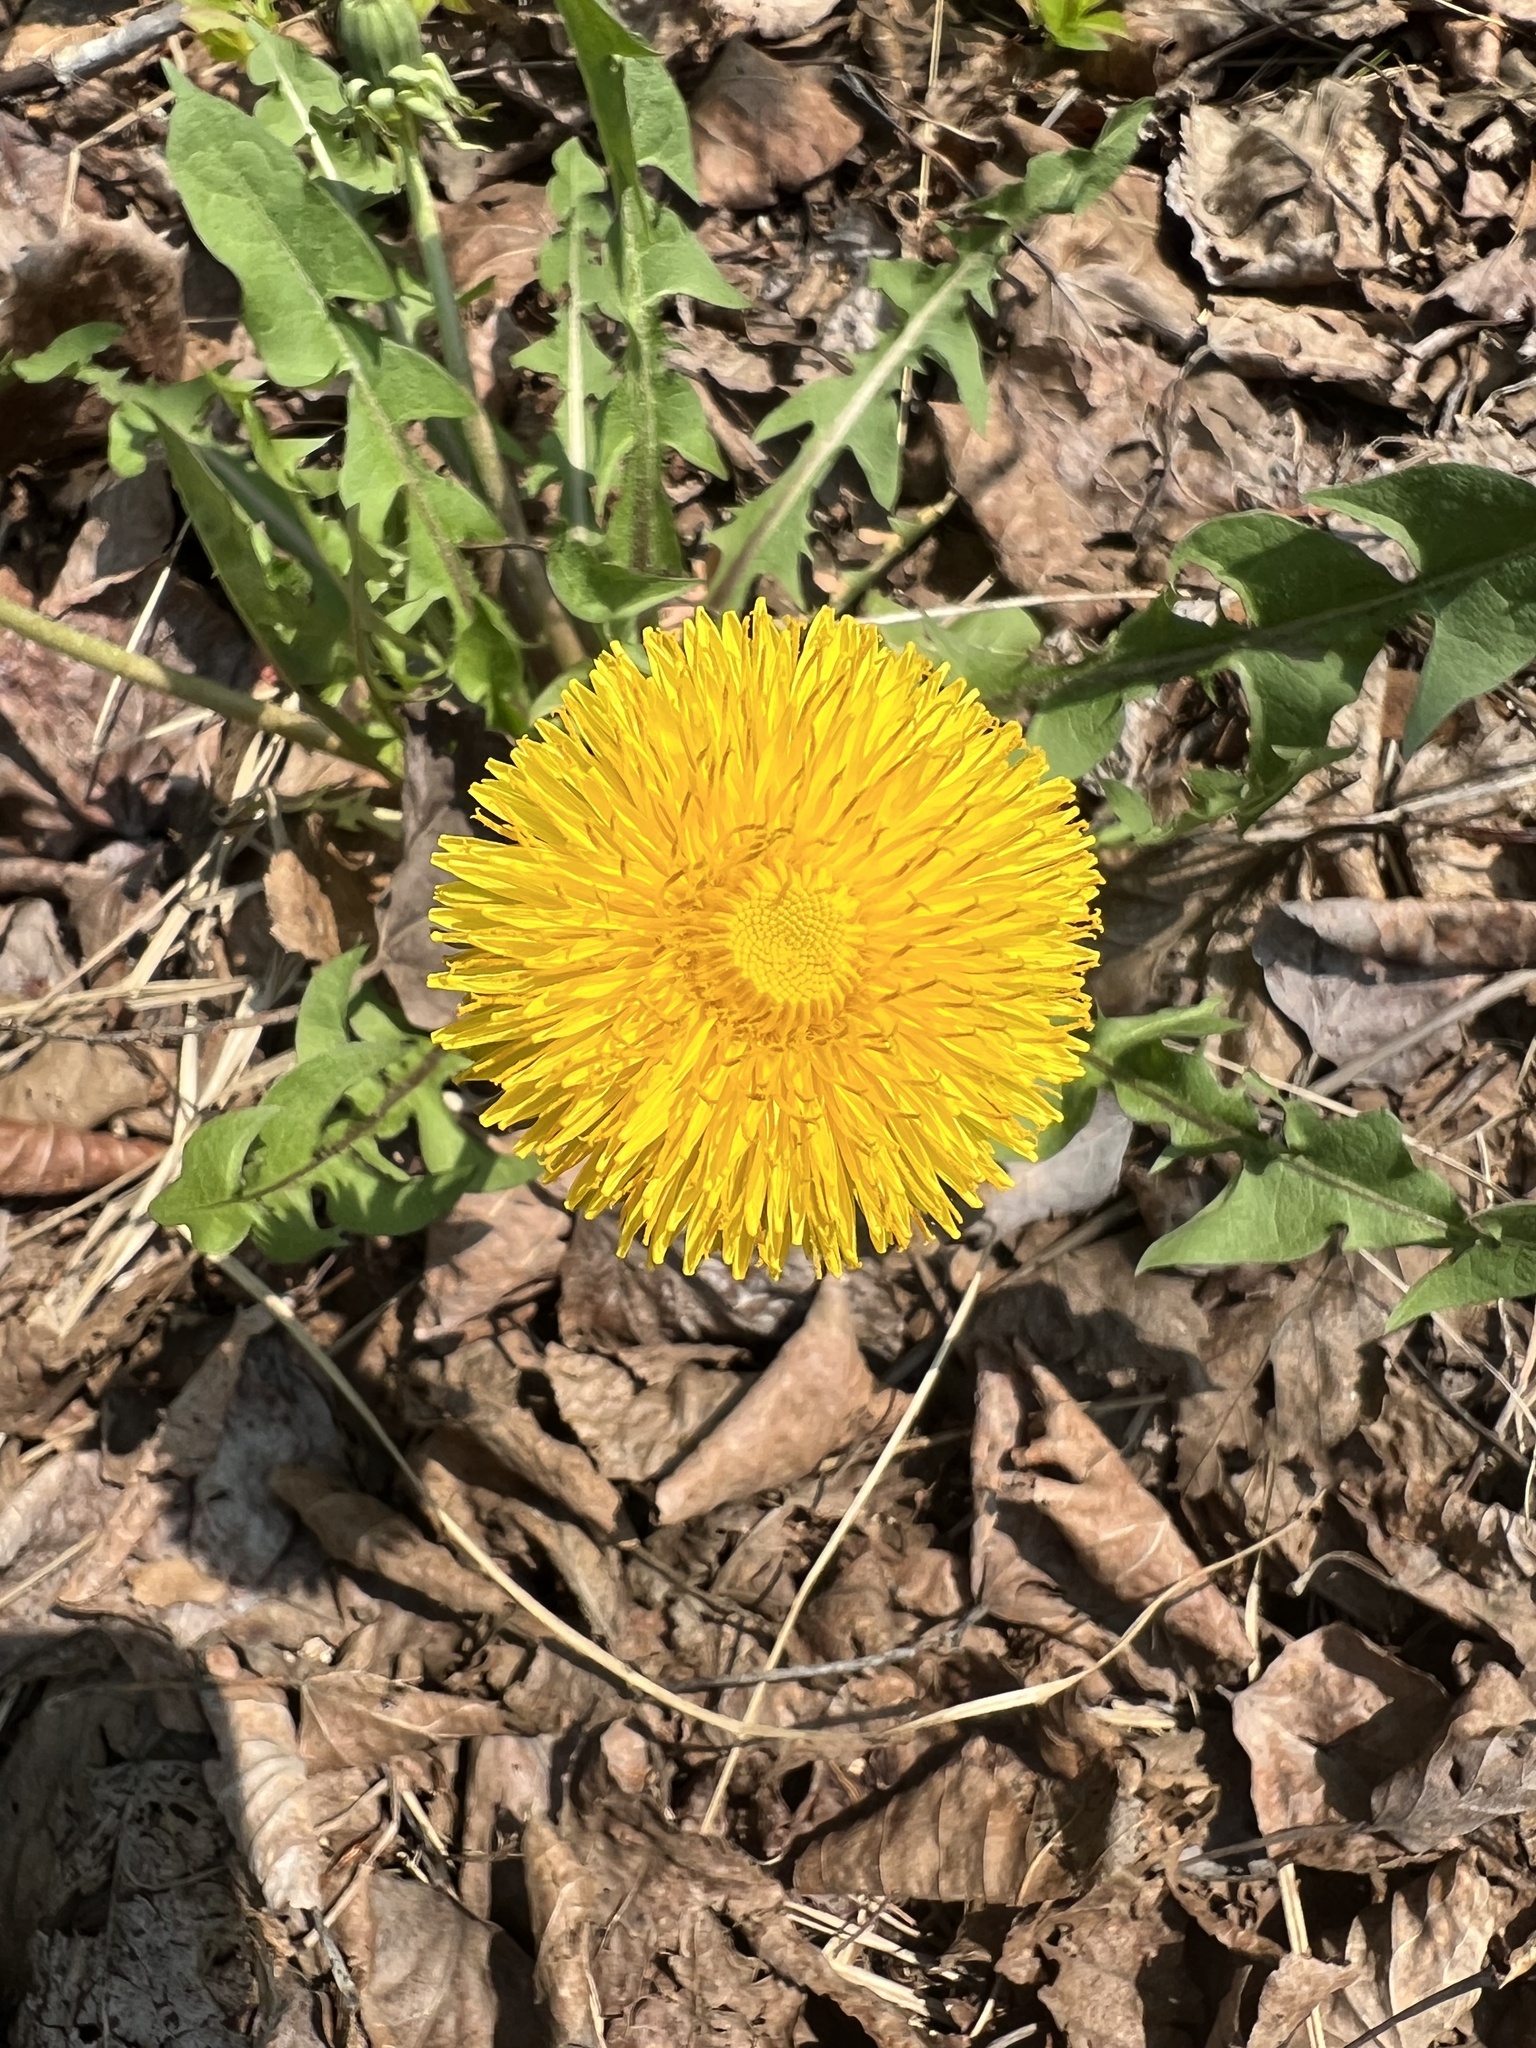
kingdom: Plantae
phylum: Tracheophyta
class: Magnoliopsida
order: Asterales
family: Asteraceae
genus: Taraxacum
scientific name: Taraxacum officinale
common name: Common dandelion
